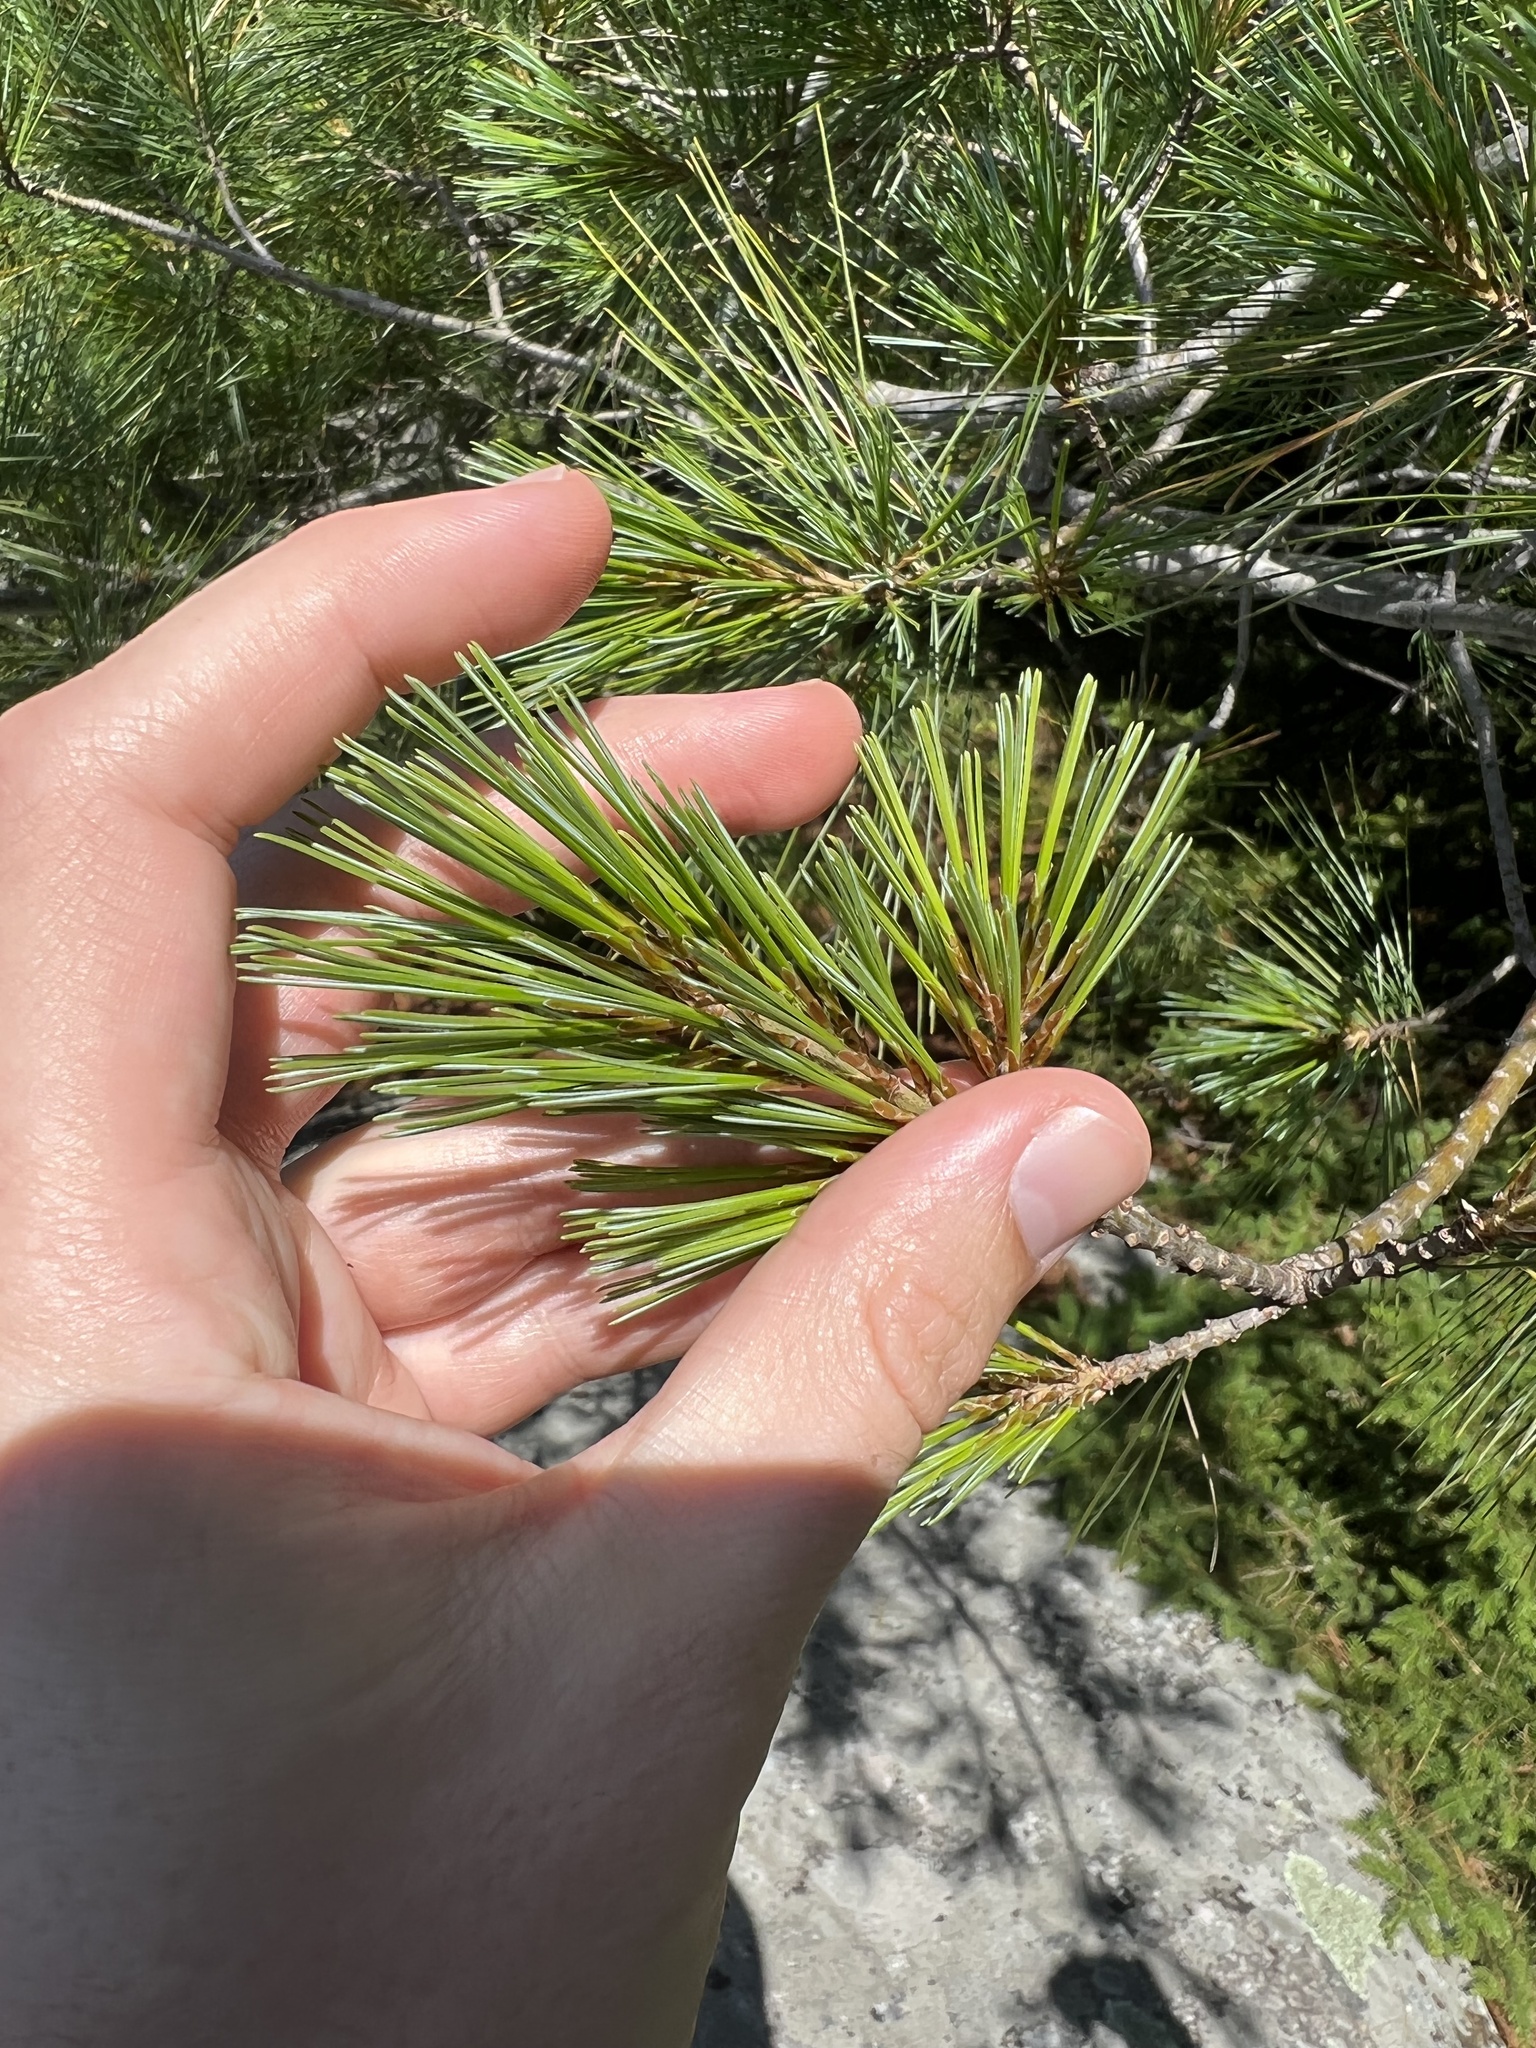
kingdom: Plantae
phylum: Tracheophyta
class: Pinopsida
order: Pinales
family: Pinaceae
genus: Pinus
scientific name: Pinus strobus
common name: Weymouth pine
